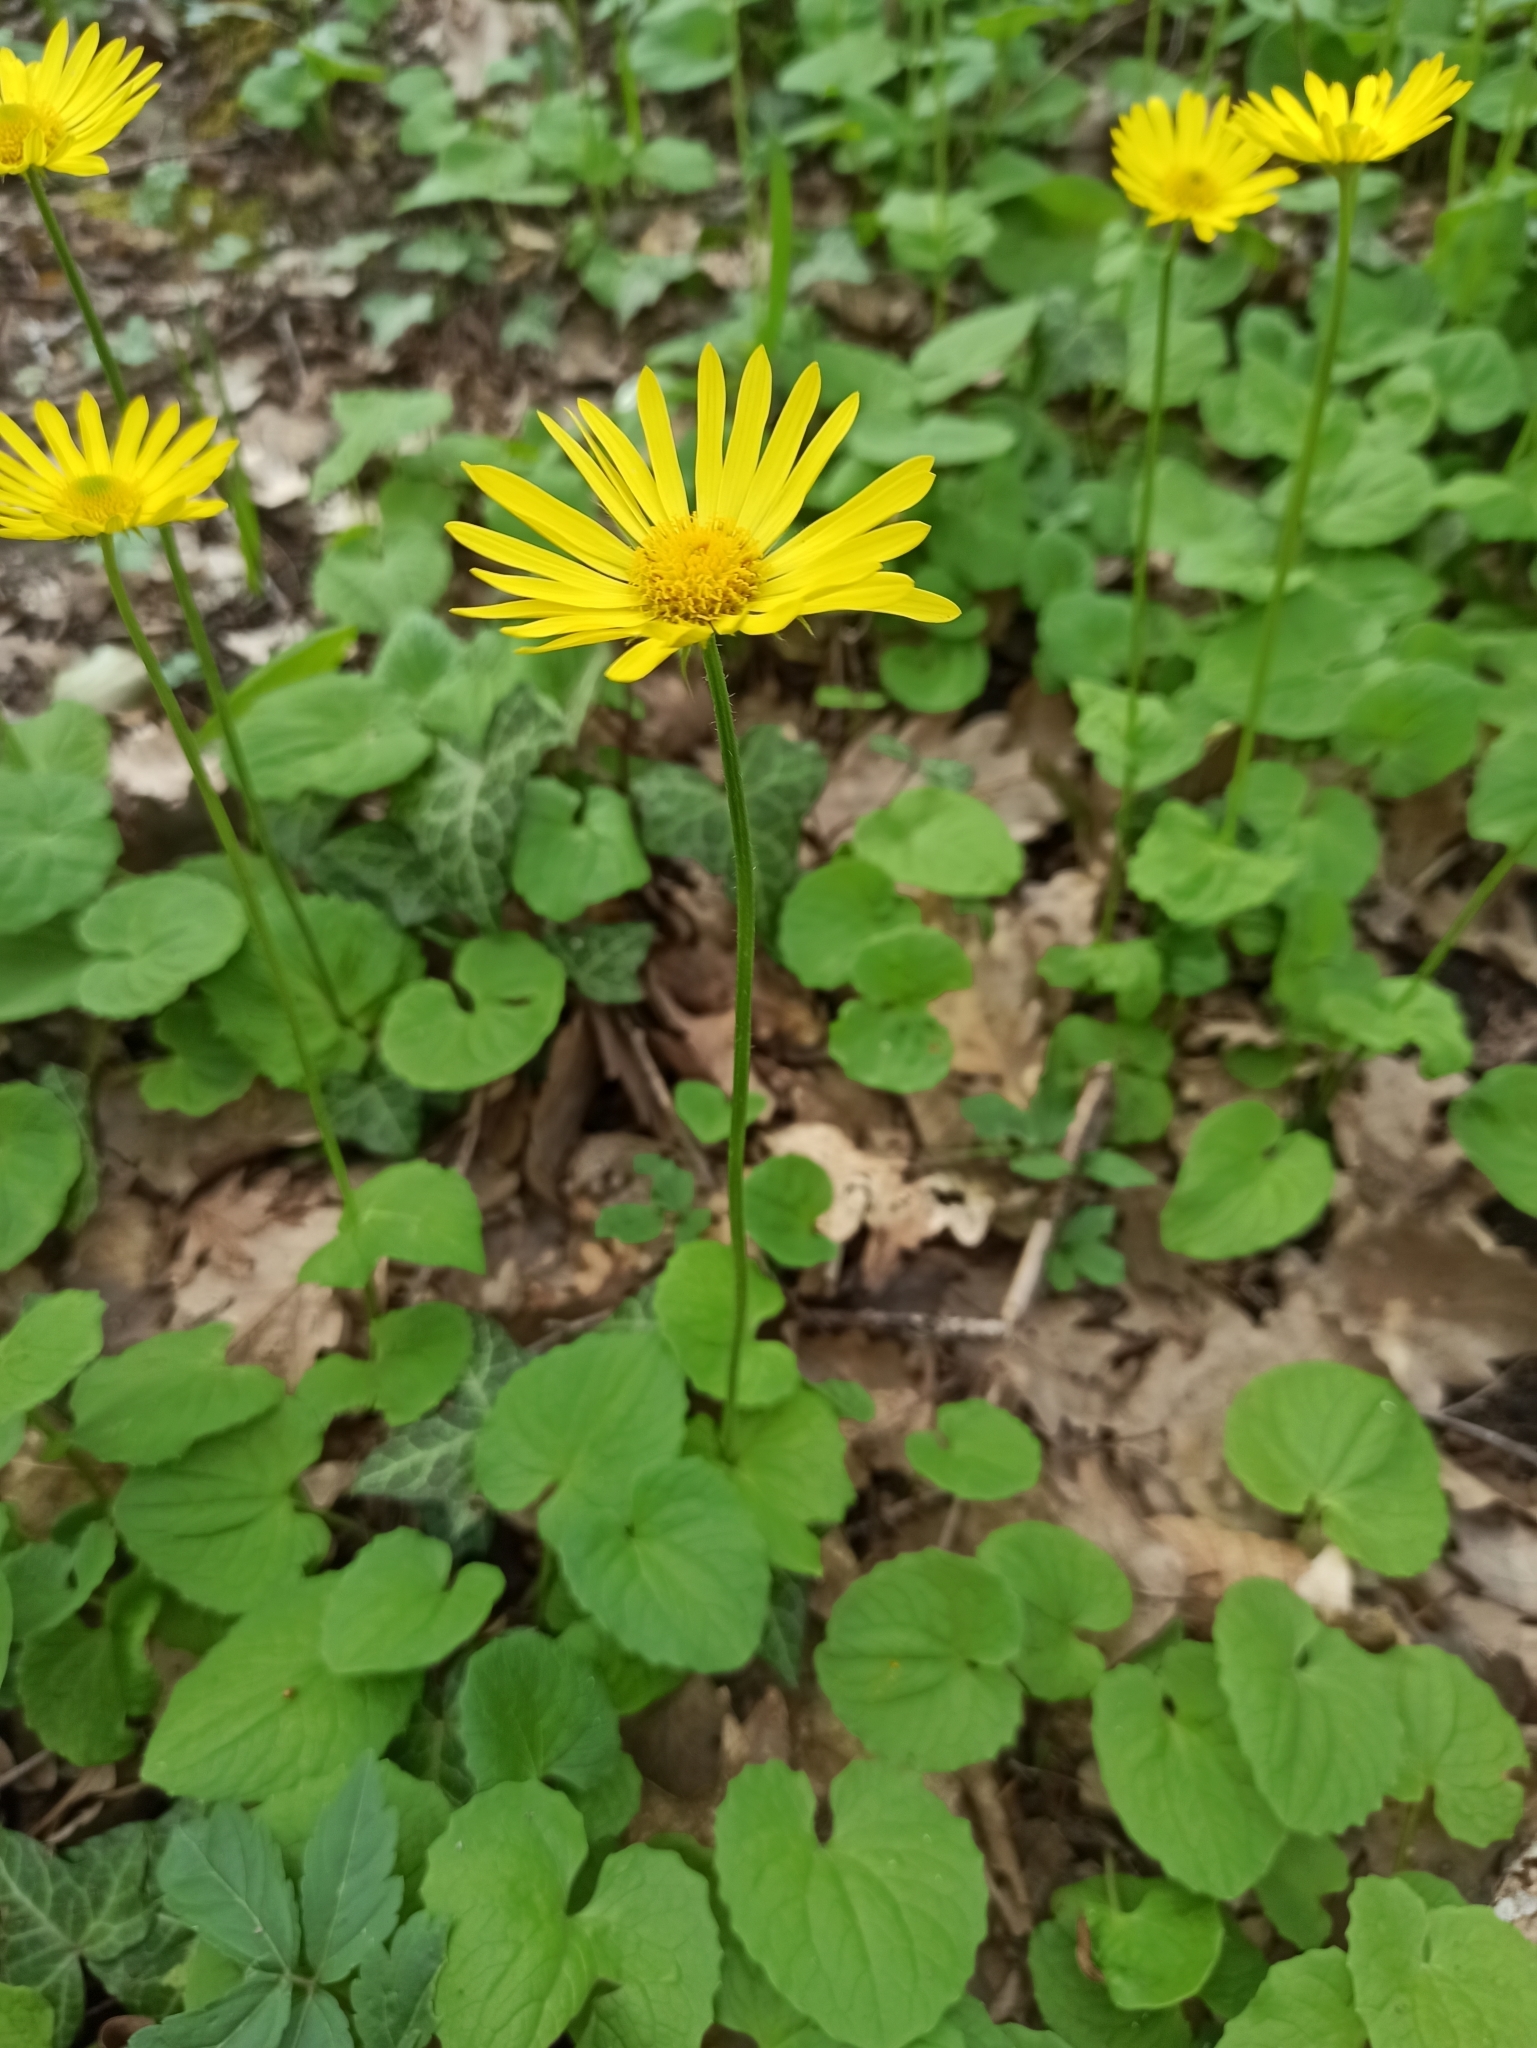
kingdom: Plantae
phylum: Tracheophyta
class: Magnoliopsida
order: Asterales
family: Asteraceae
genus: Doronicum
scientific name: Doronicum
